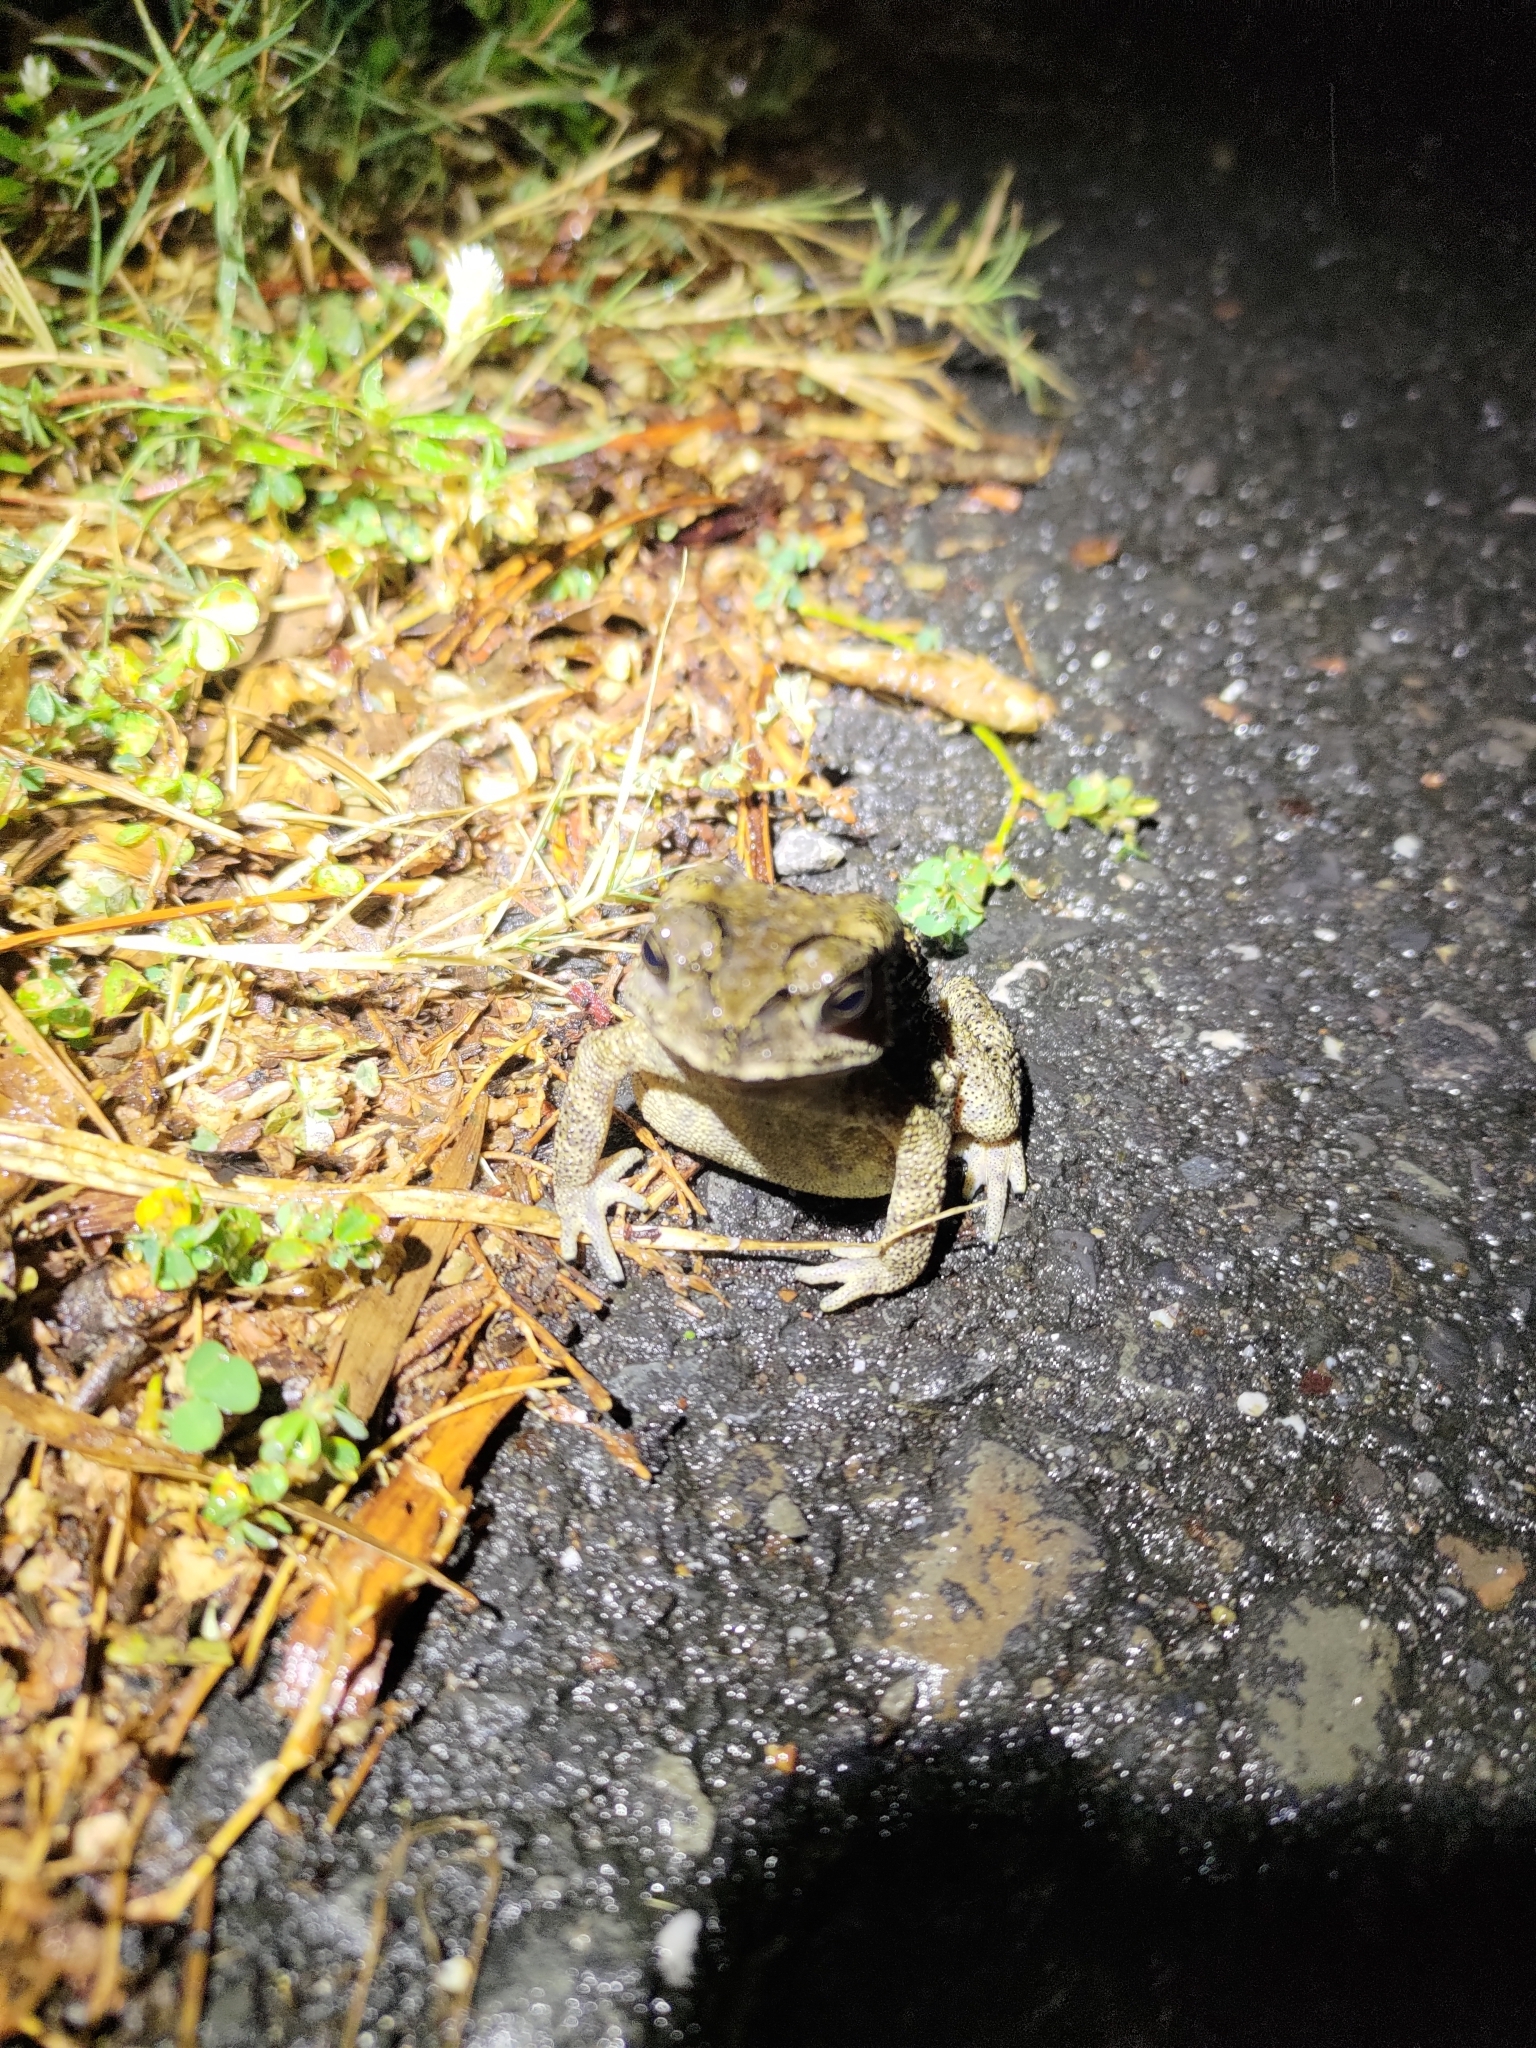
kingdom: Animalia
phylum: Chordata
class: Amphibia
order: Anura
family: Bufonidae
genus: Duttaphrynus
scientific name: Duttaphrynus melanostictus
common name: Common sunda toad
